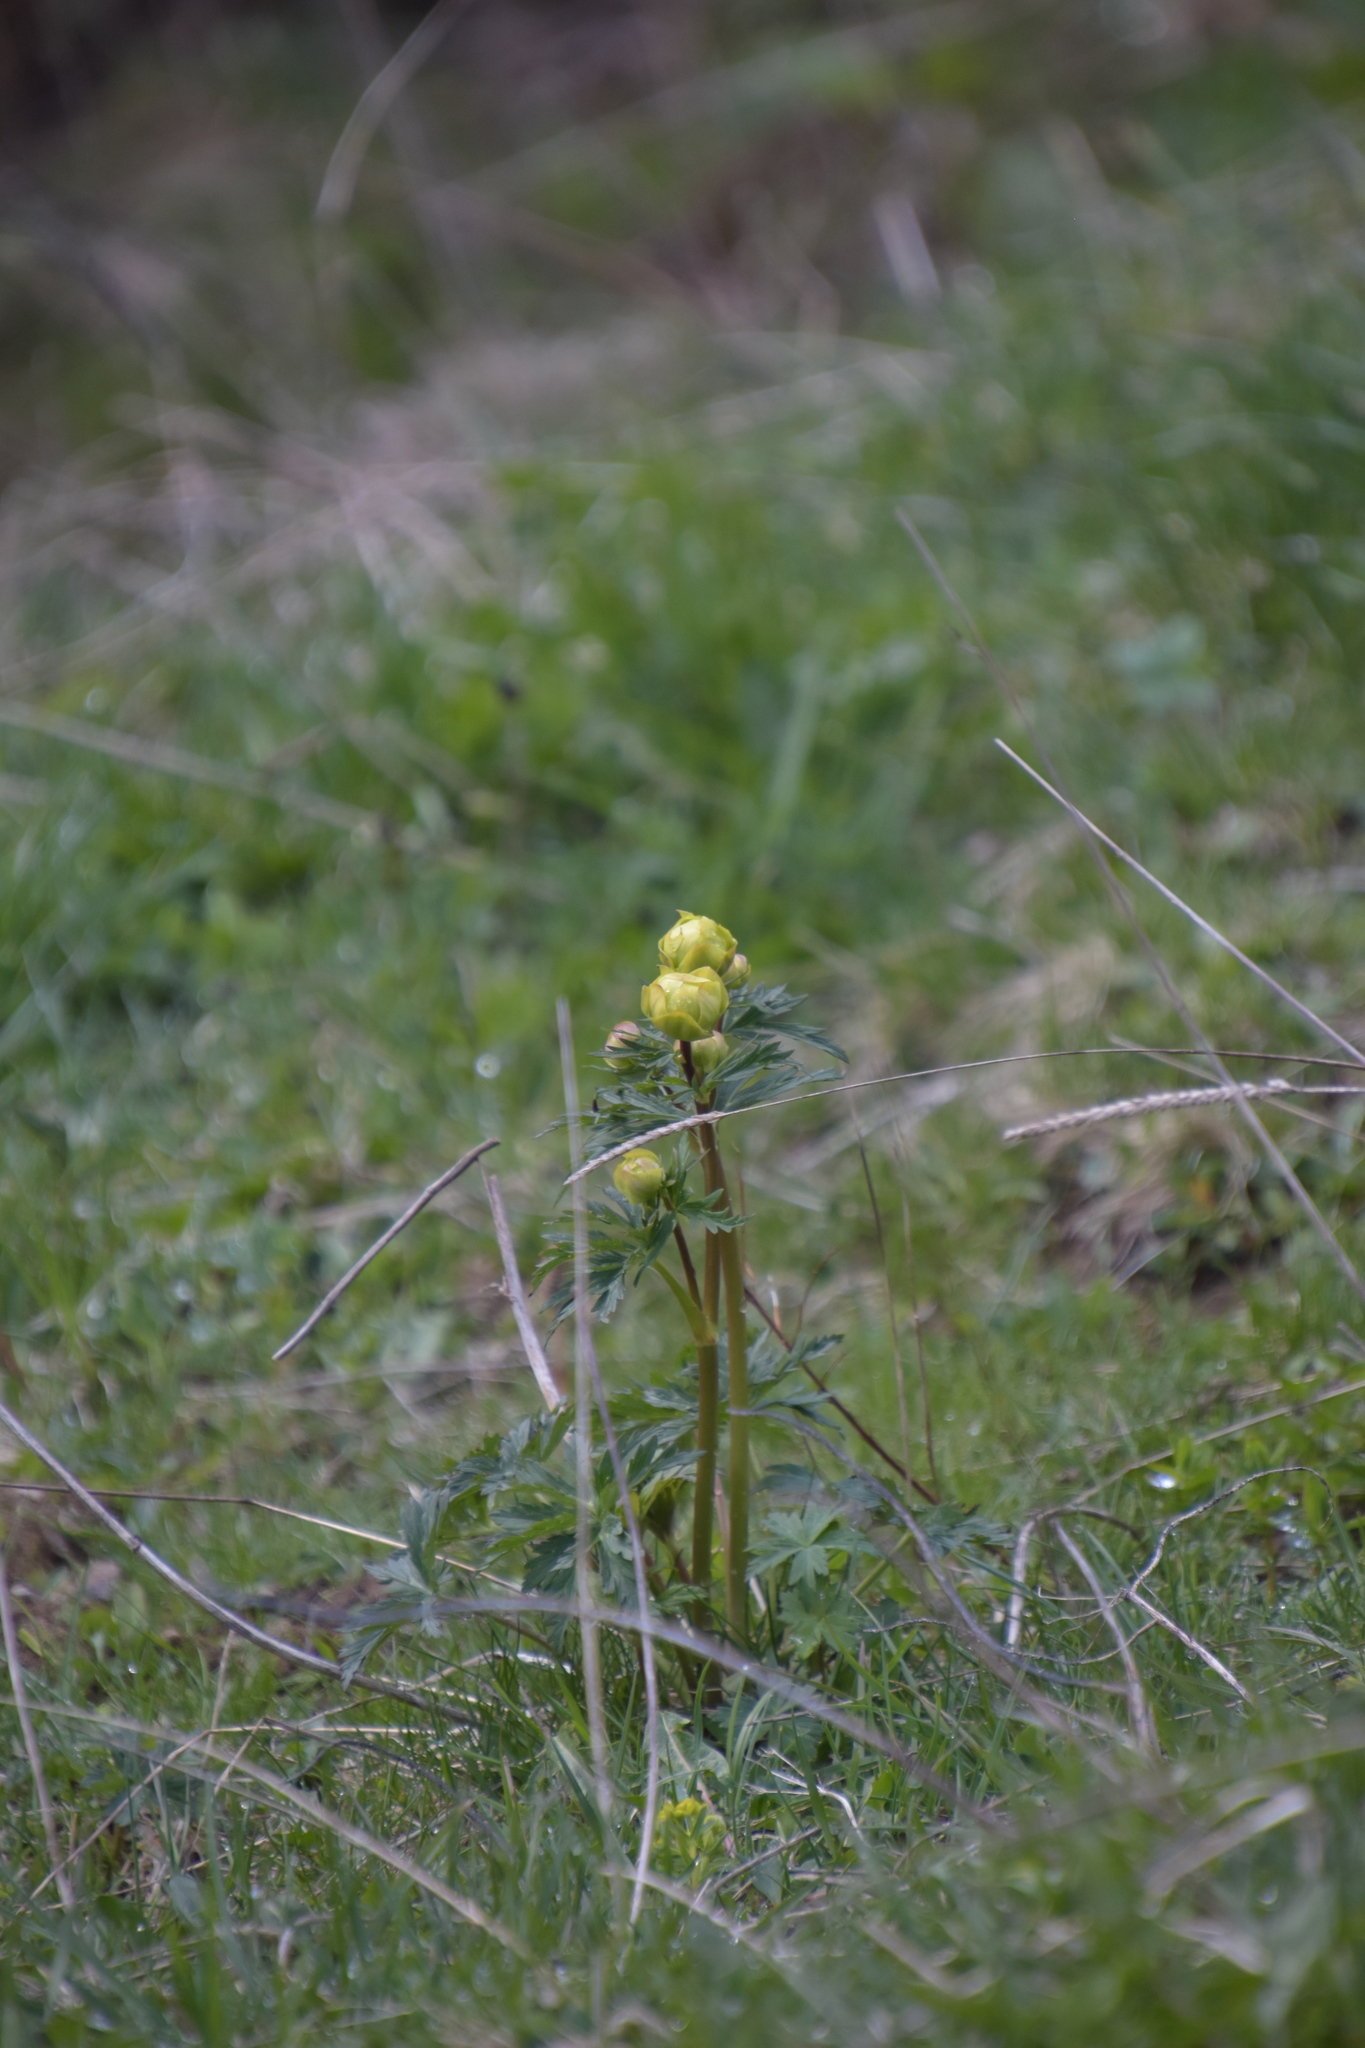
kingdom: Plantae
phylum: Tracheophyta
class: Magnoliopsida
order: Ranunculales
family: Ranunculaceae
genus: Trollius
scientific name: Trollius europaeus
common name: European globeflower
